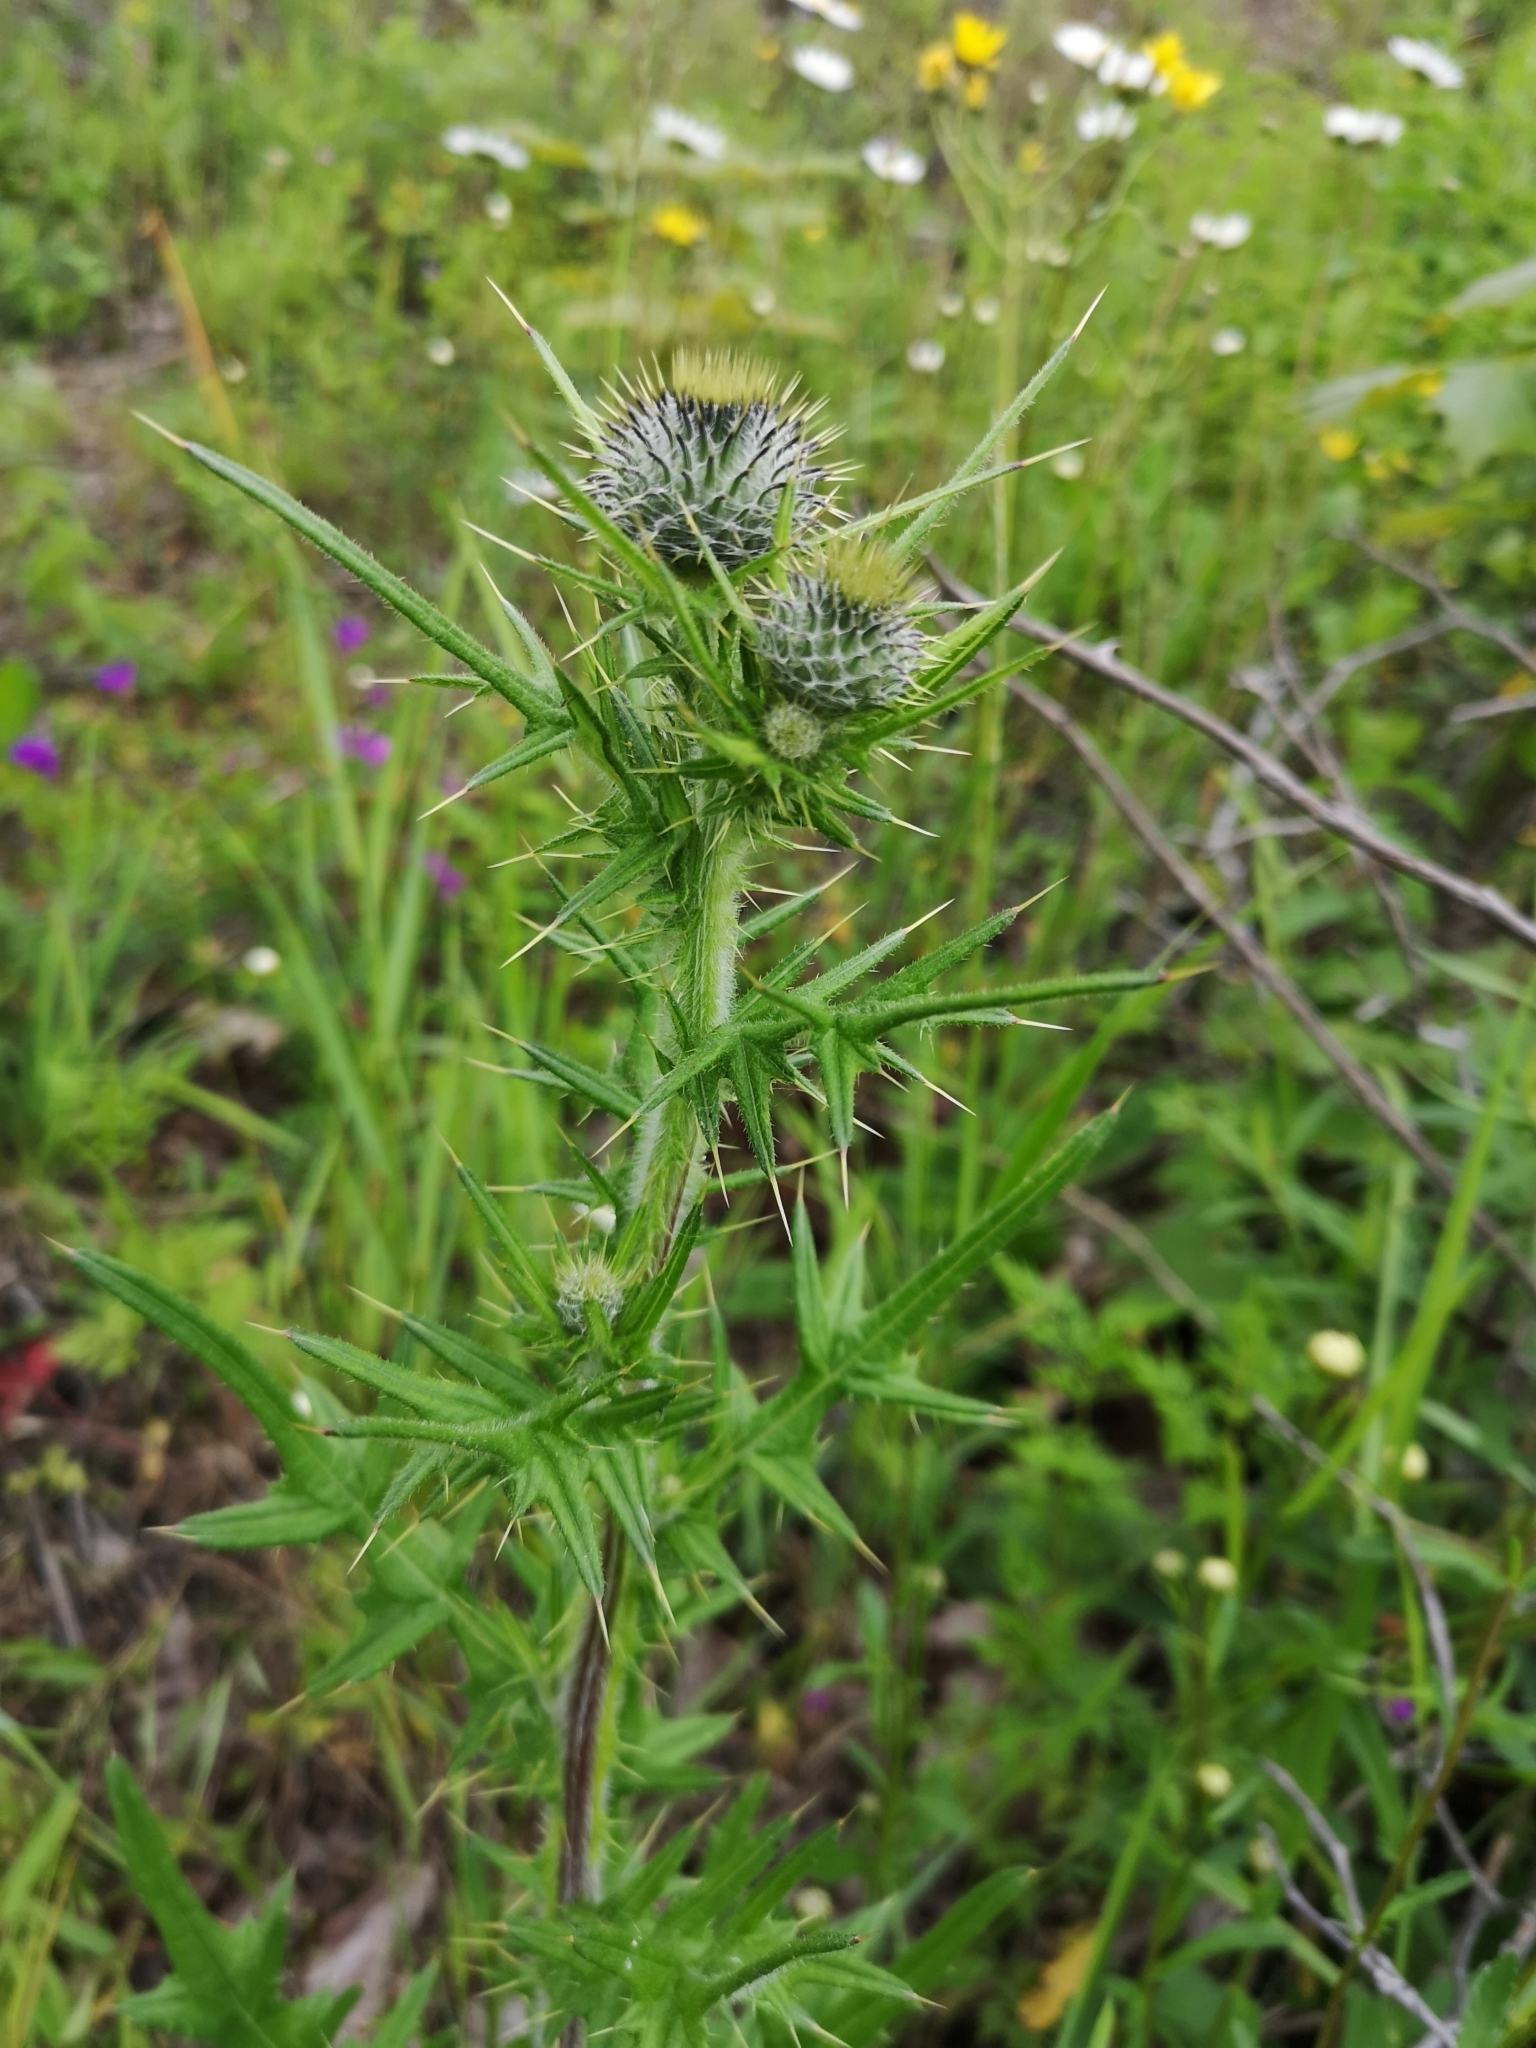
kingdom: Plantae
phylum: Tracheophyta
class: Magnoliopsida
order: Asterales
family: Asteraceae
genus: Cirsium
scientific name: Cirsium vulgare
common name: Bull thistle
